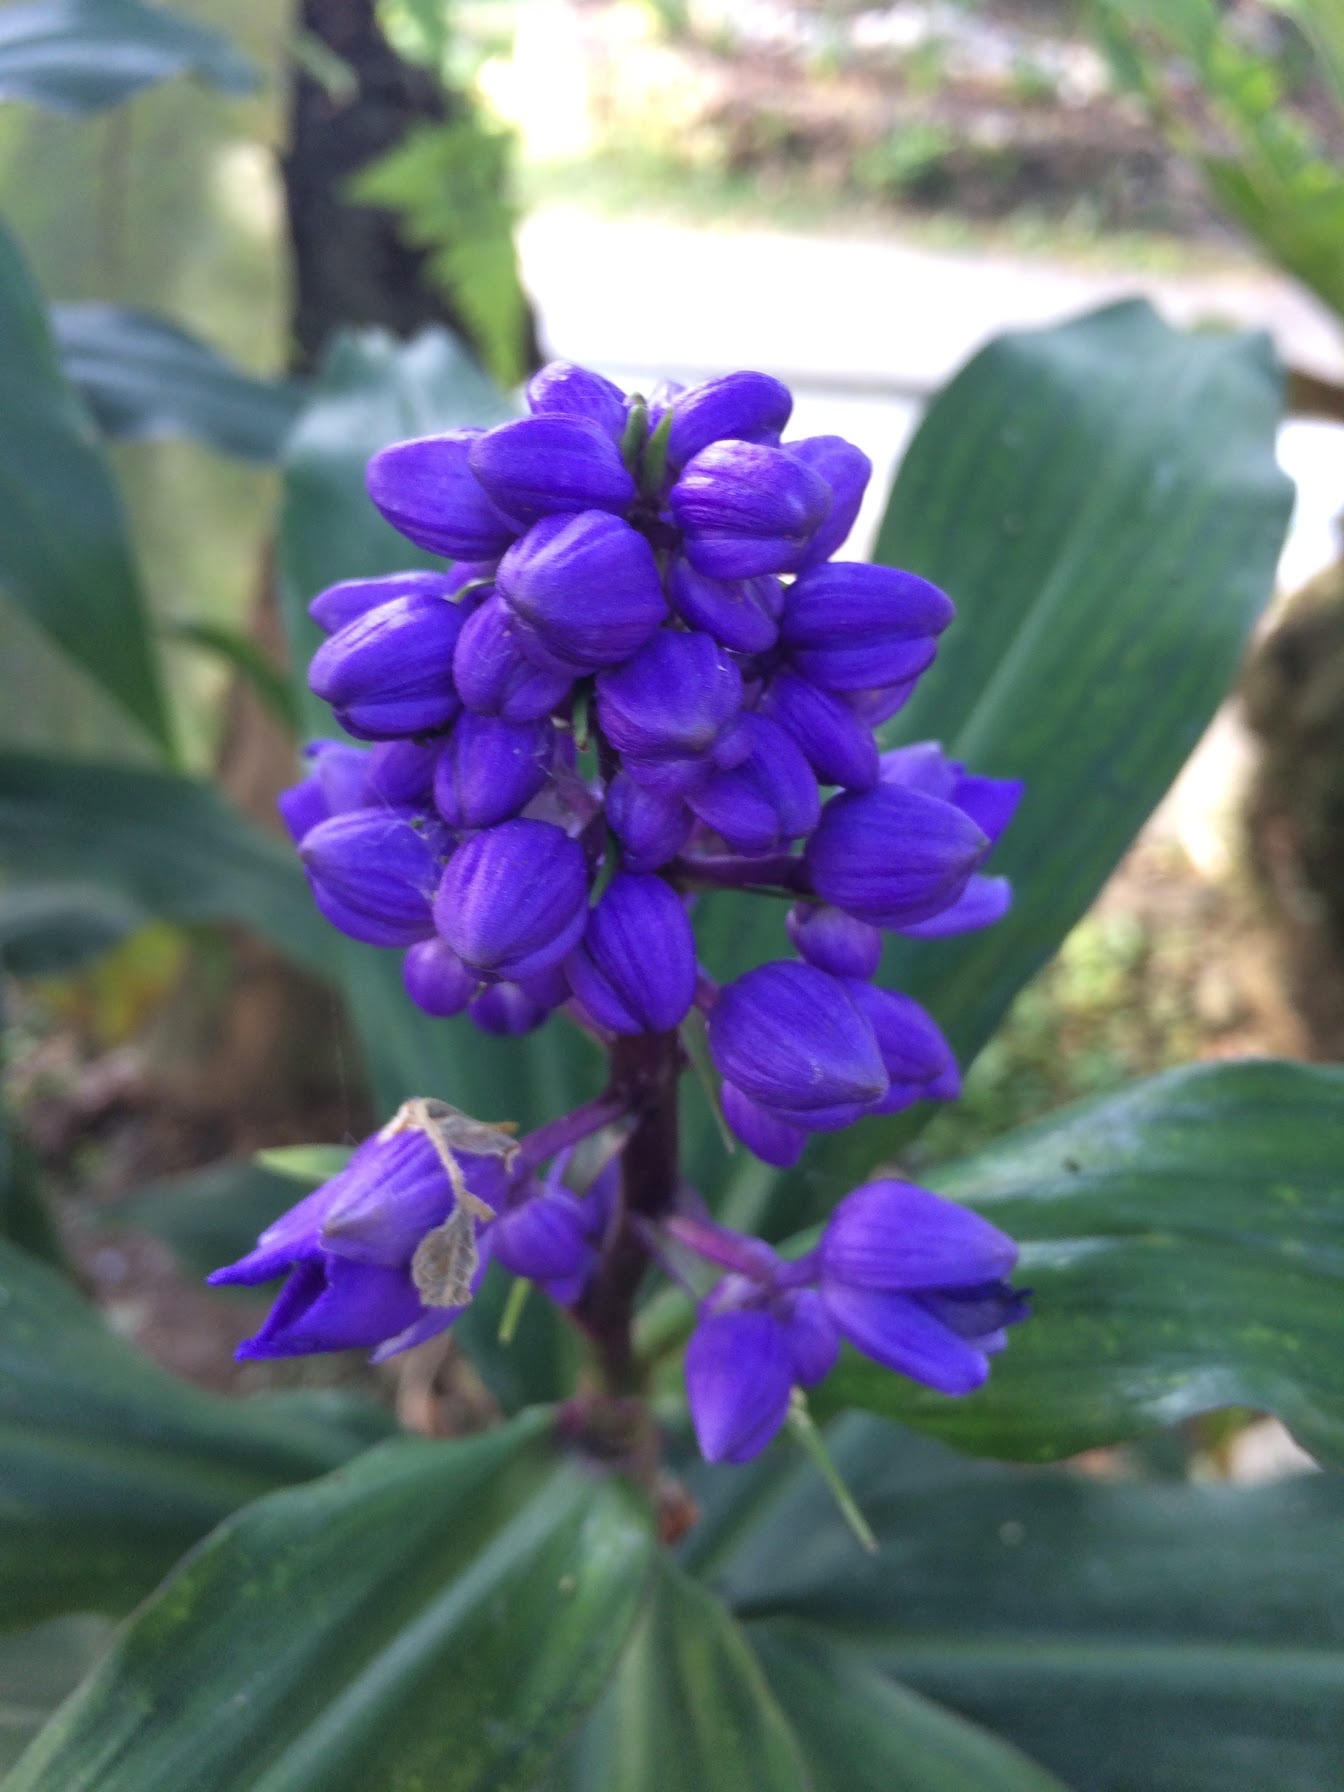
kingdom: Plantae
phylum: Tracheophyta
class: Liliopsida
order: Commelinales
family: Commelinaceae
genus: Dichorisandra
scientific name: Dichorisandra thyrsiflora
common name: Blue-ginger
